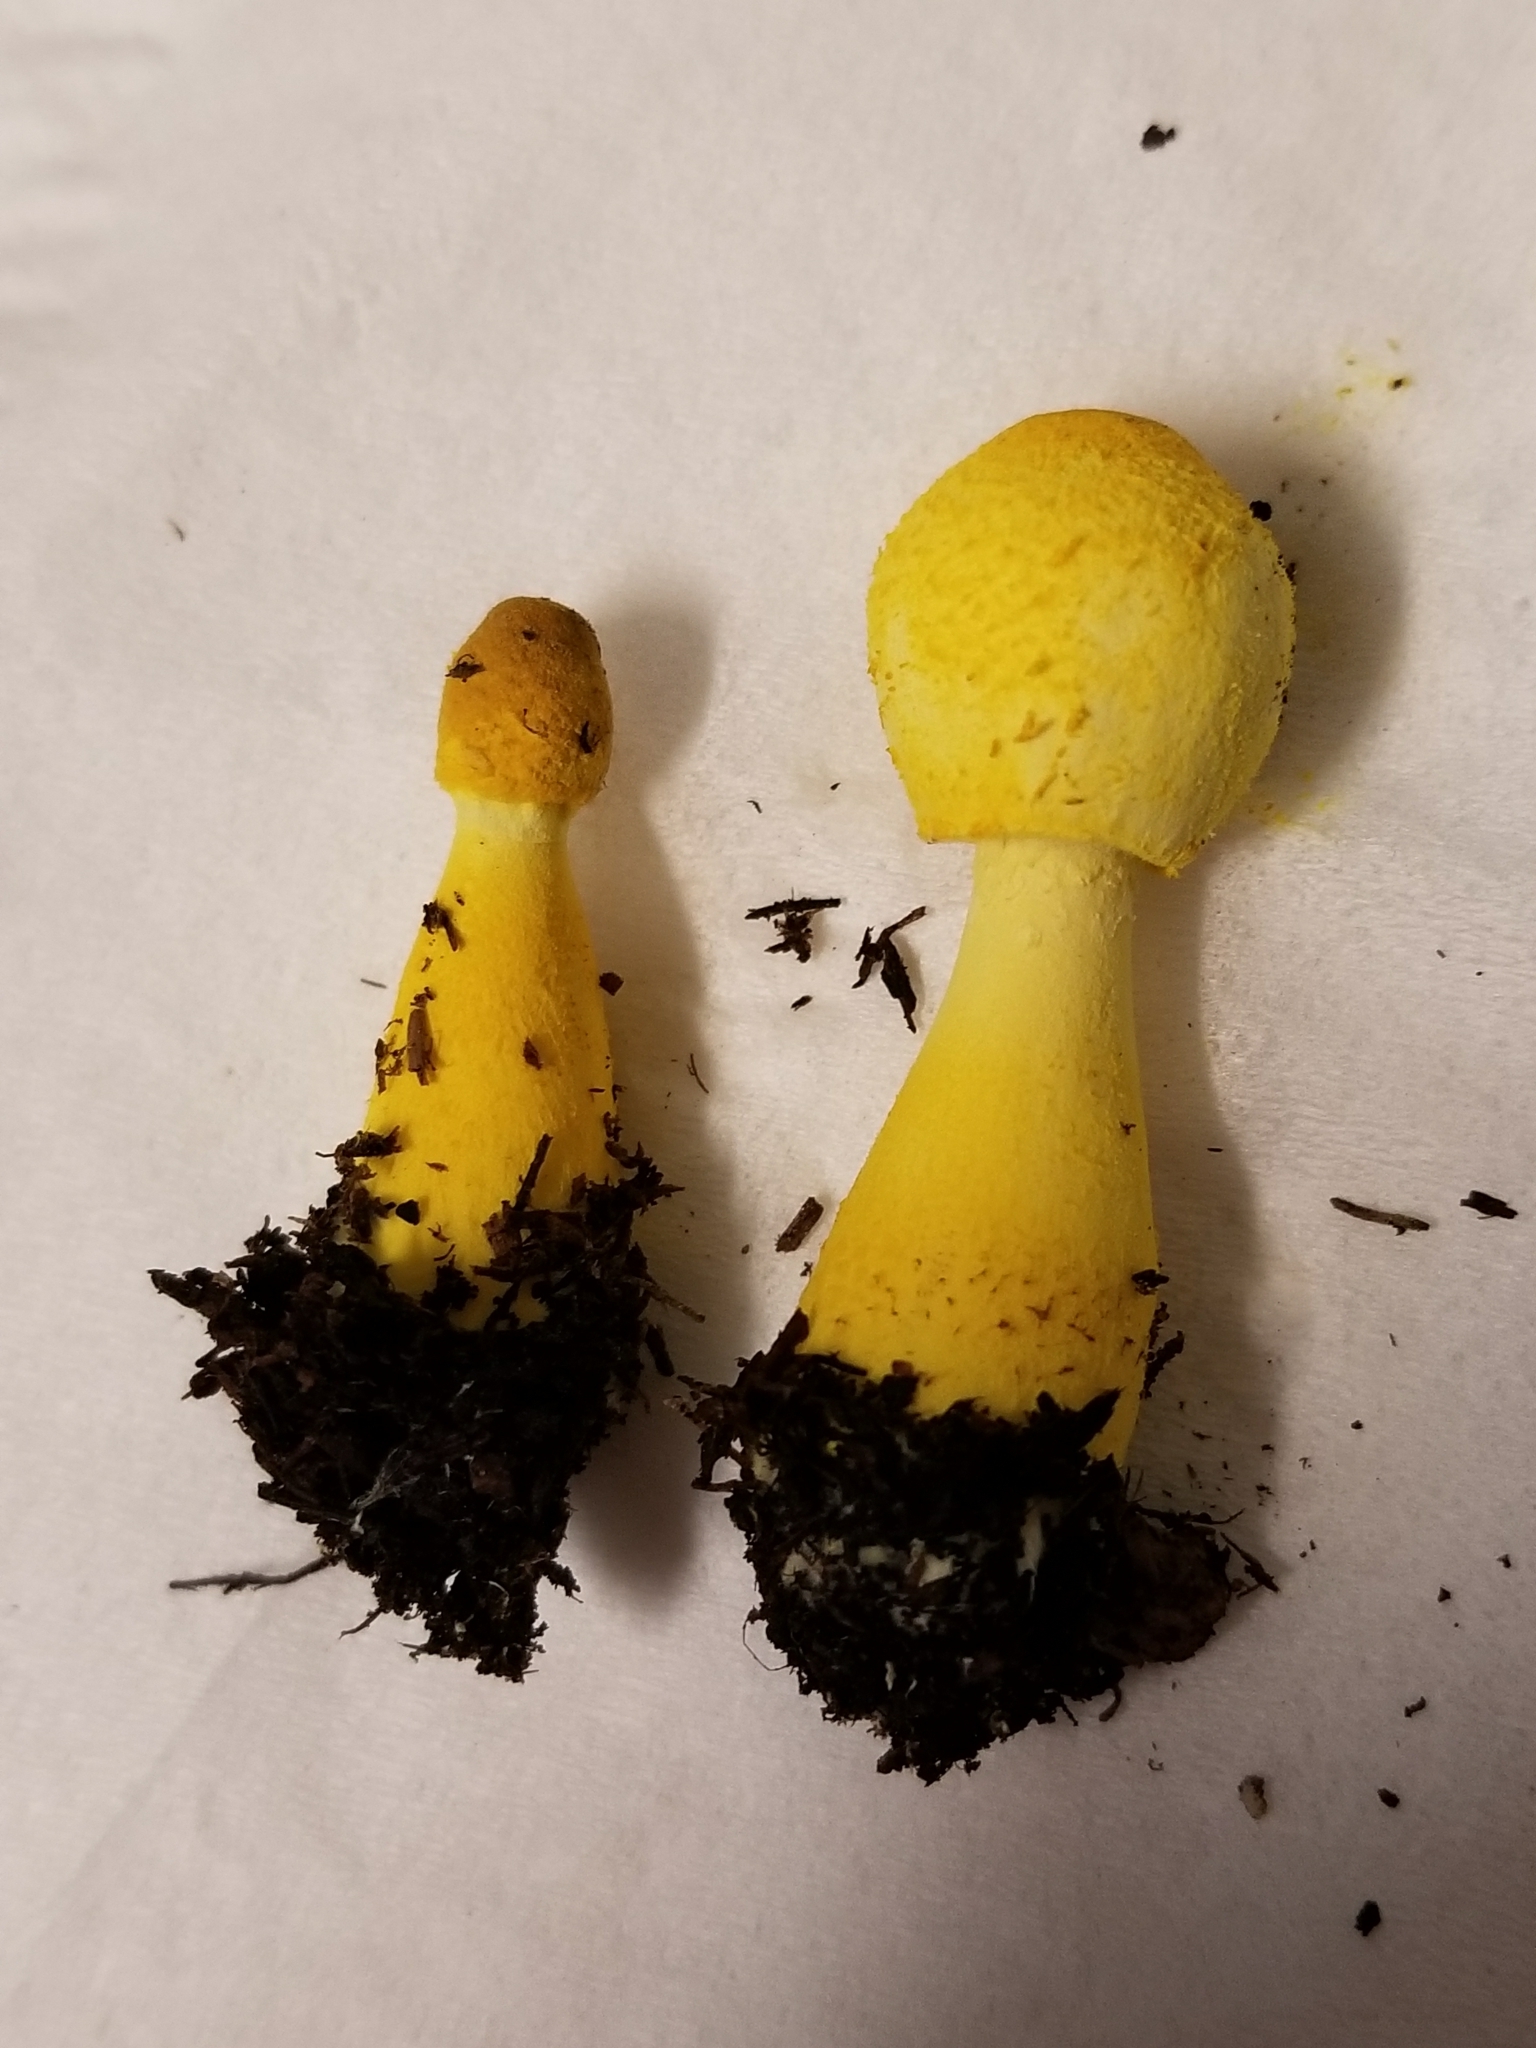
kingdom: Fungi
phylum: Basidiomycota
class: Agaricomycetes
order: Agaricales
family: Agaricaceae
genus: Leucocoprinus
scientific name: Leucocoprinus birnbaumii
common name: Plantpot dapperling
